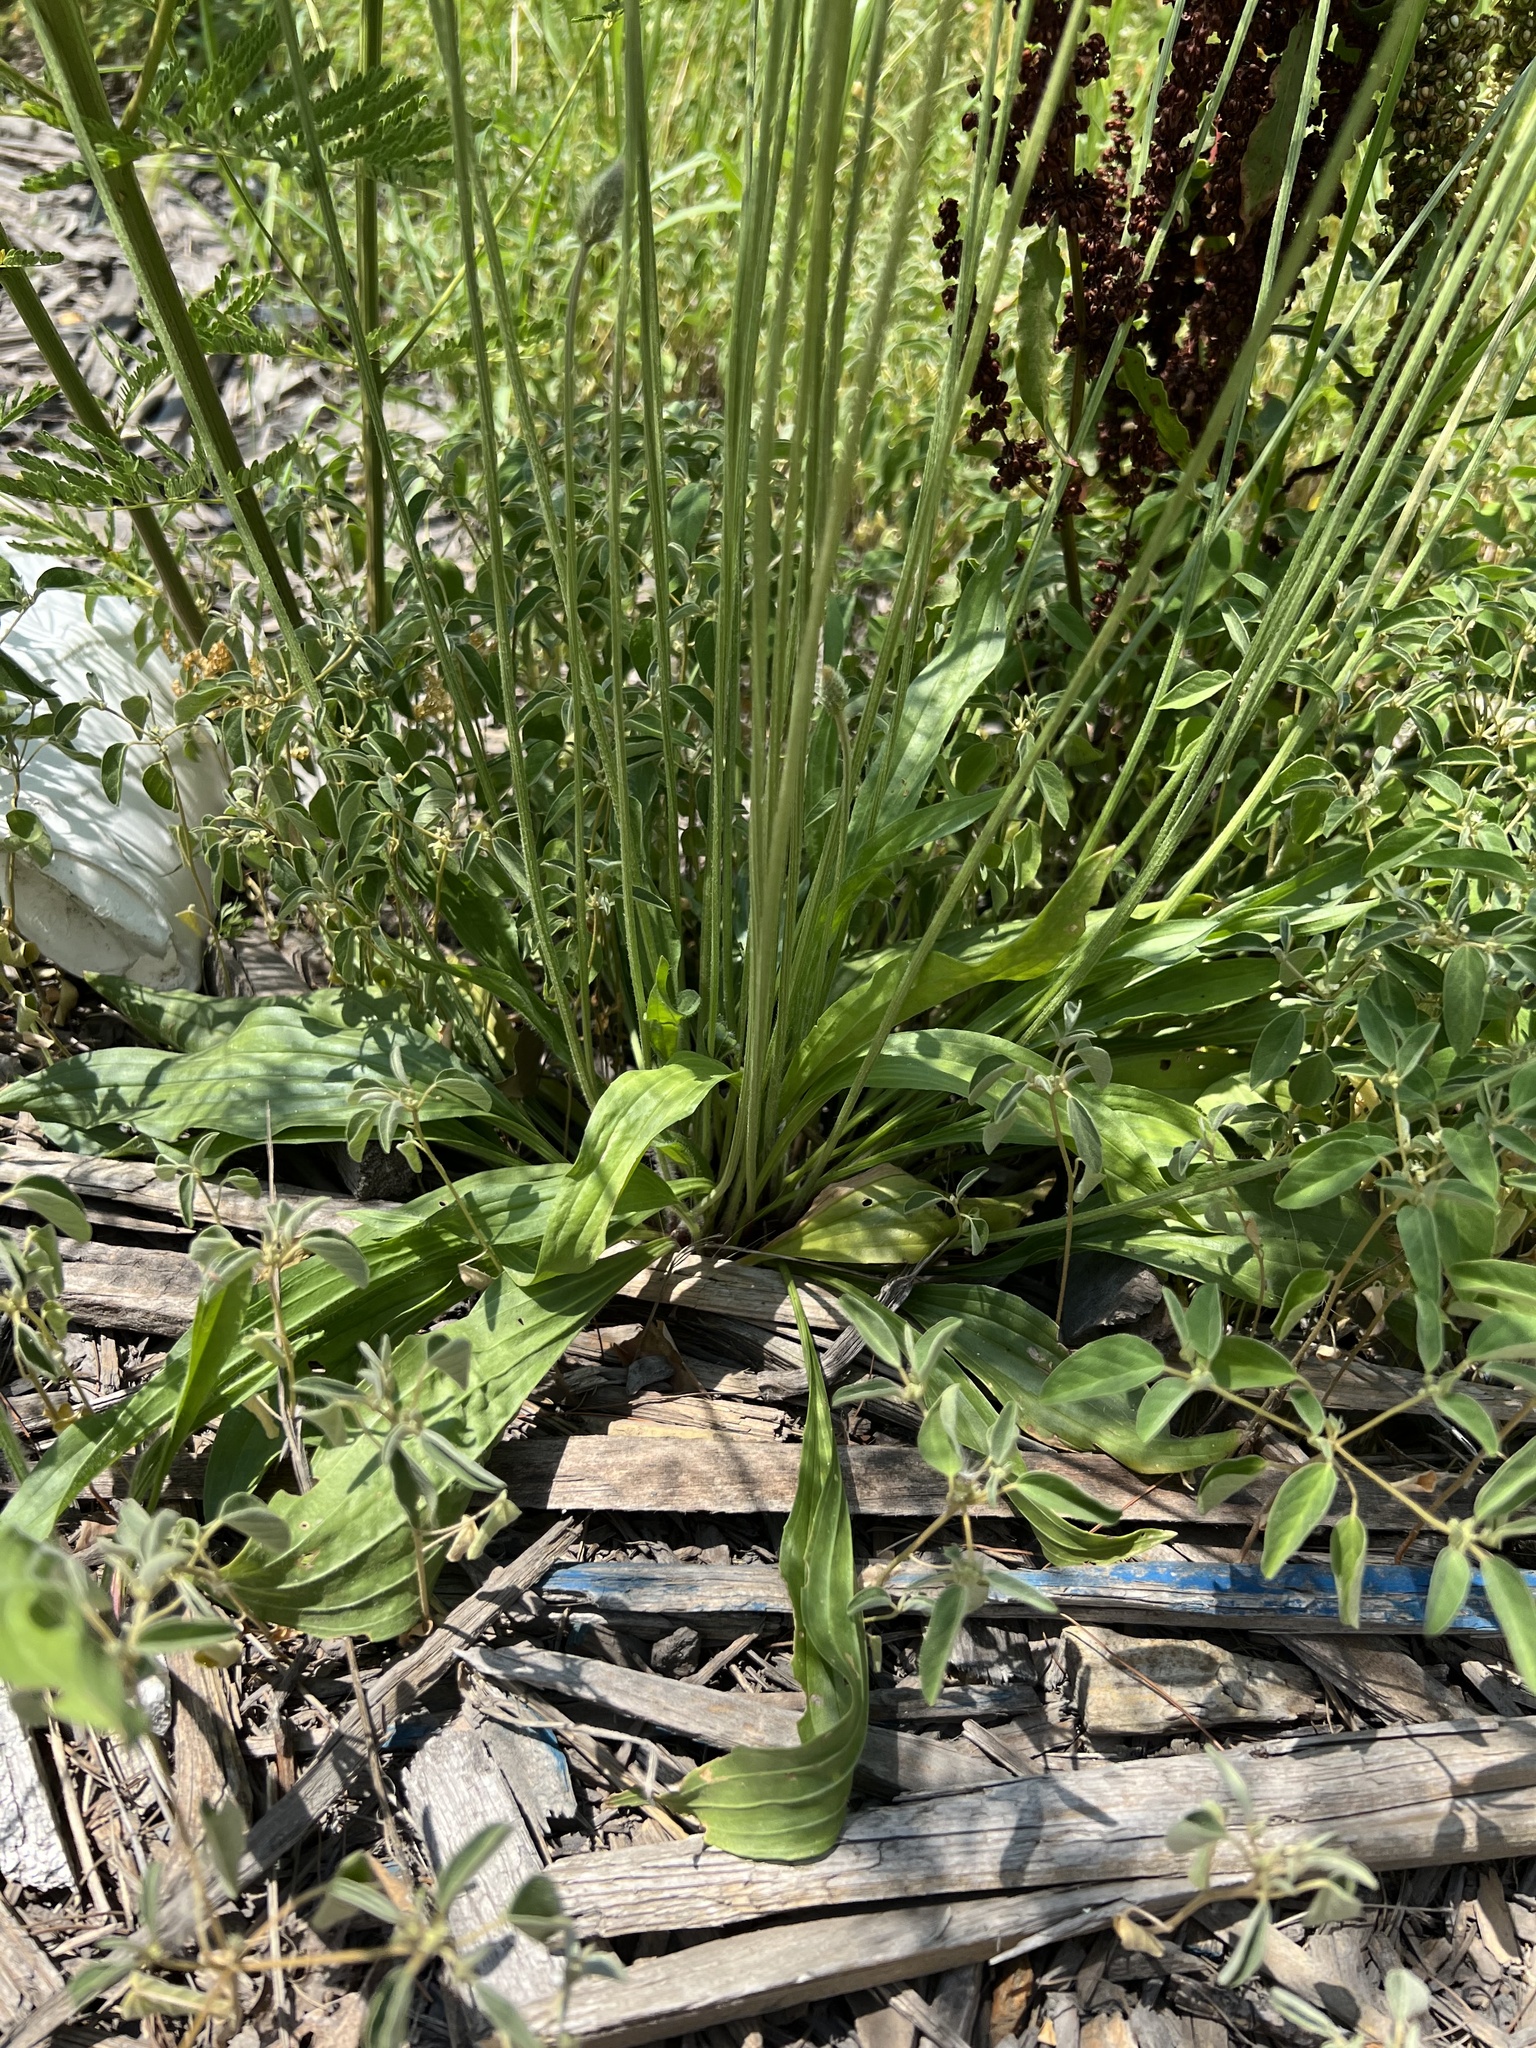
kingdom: Plantae
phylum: Tracheophyta
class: Magnoliopsida
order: Lamiales
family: Plantaginaceae
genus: Plantago
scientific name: Plantago lanceolata
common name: Ribwort plantain
